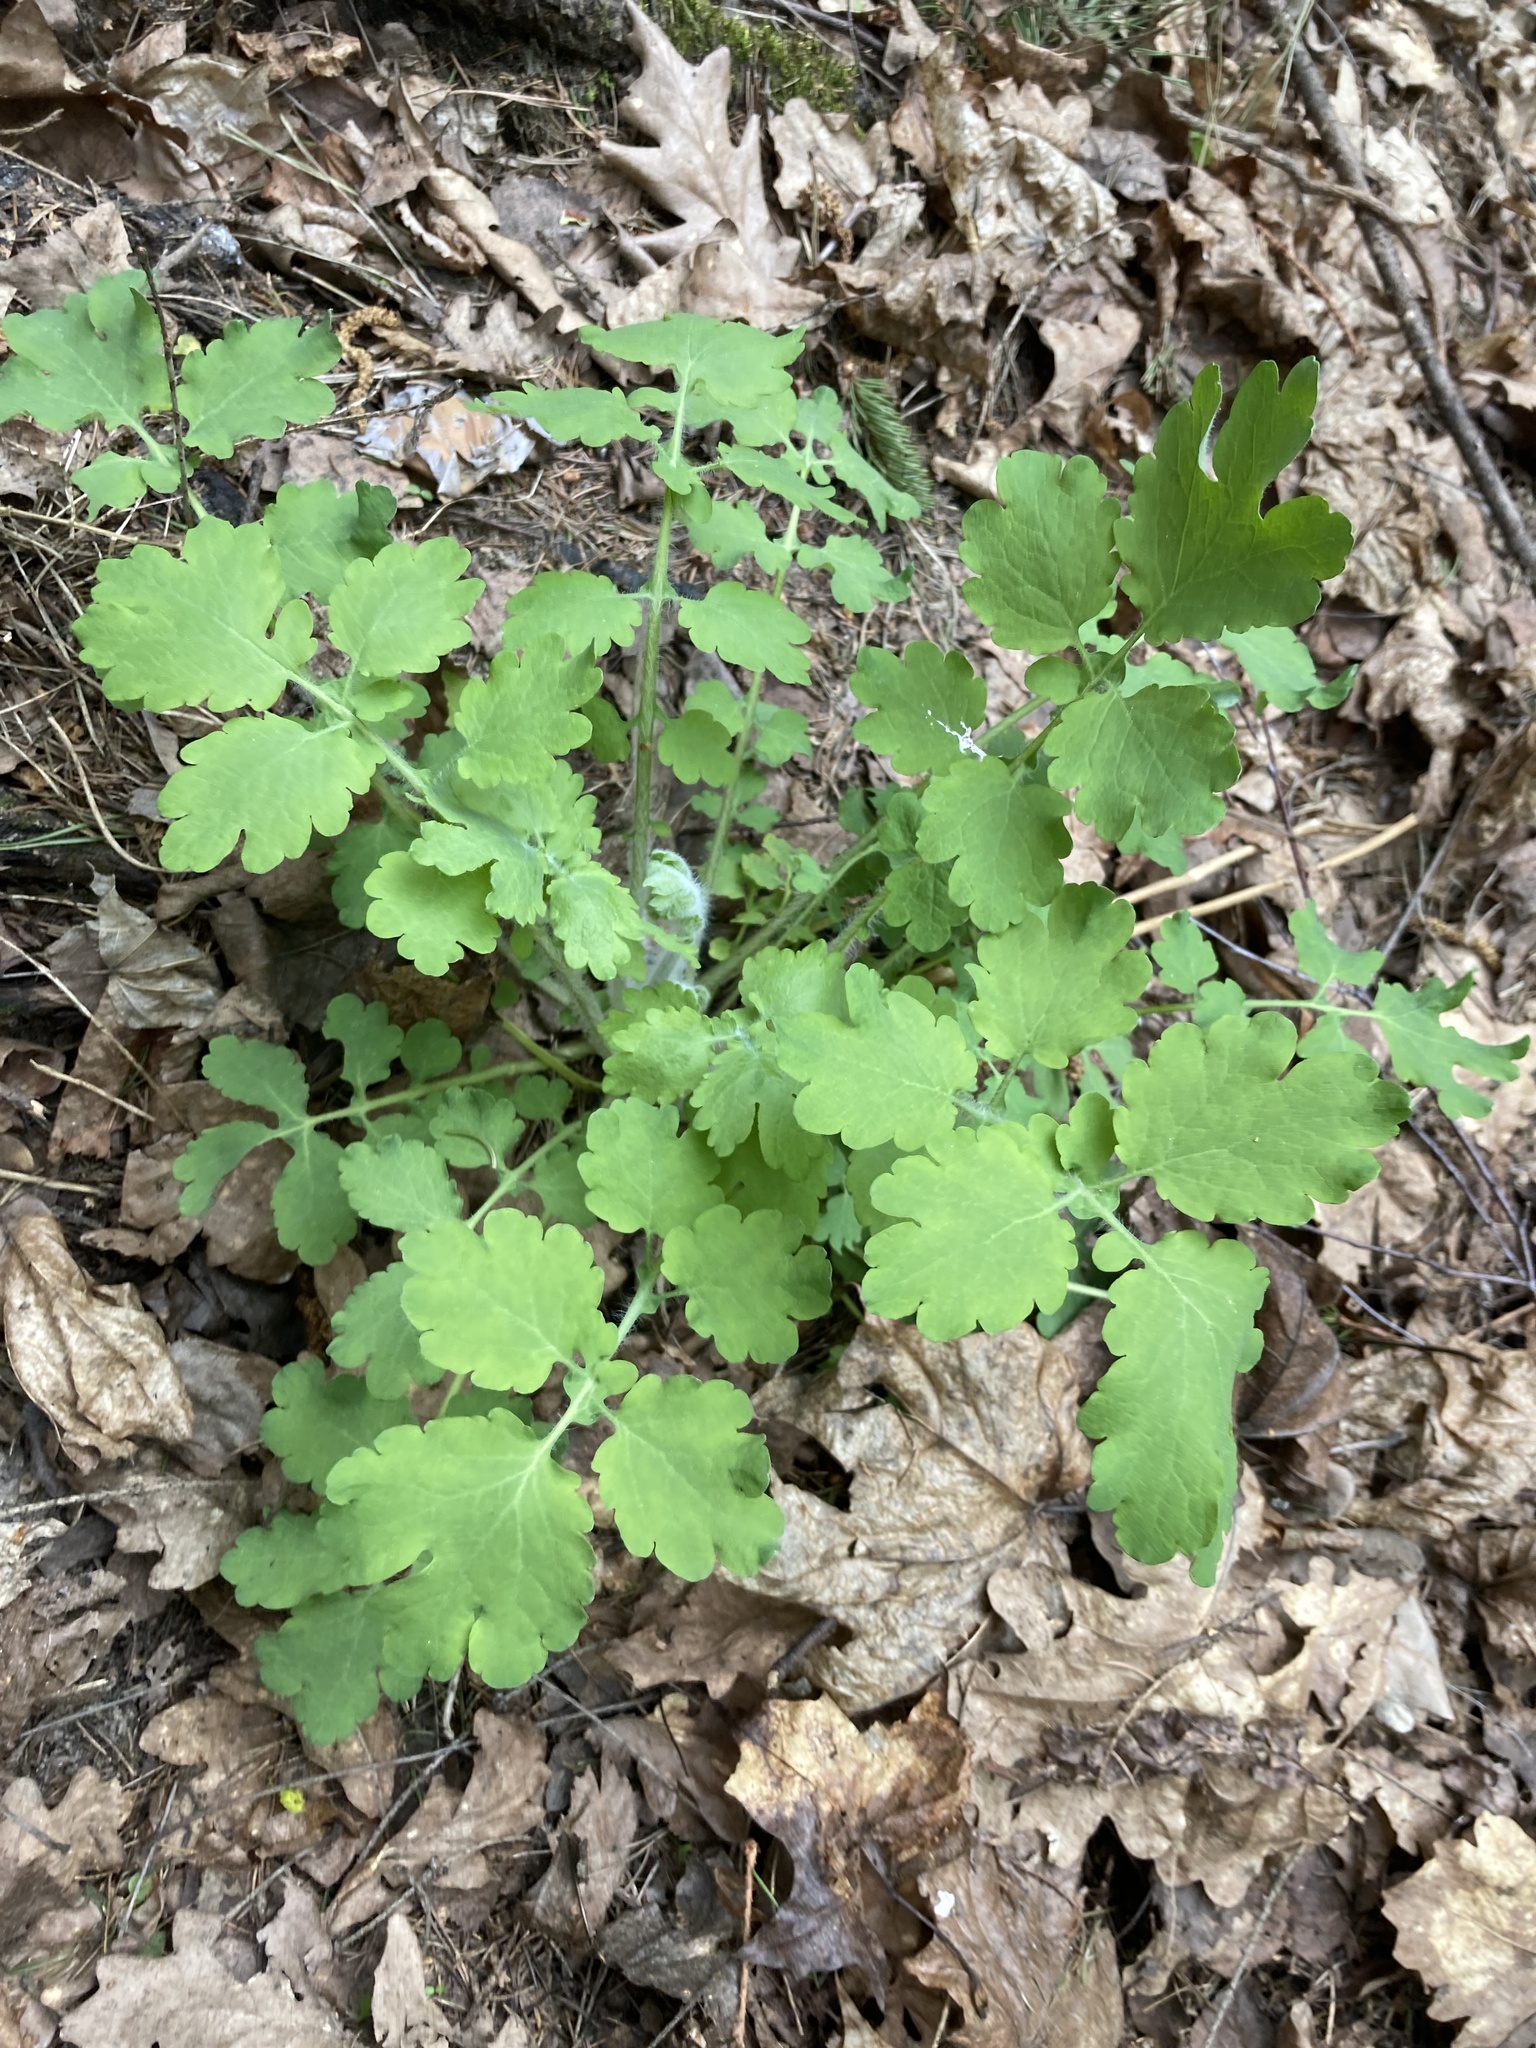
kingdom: Plantae
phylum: Tracheophyta
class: Magnoliopsida
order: Ranunculales
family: Papaveraceae
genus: Chelidonium
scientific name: Chelidonium majus
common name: Greater celandine
